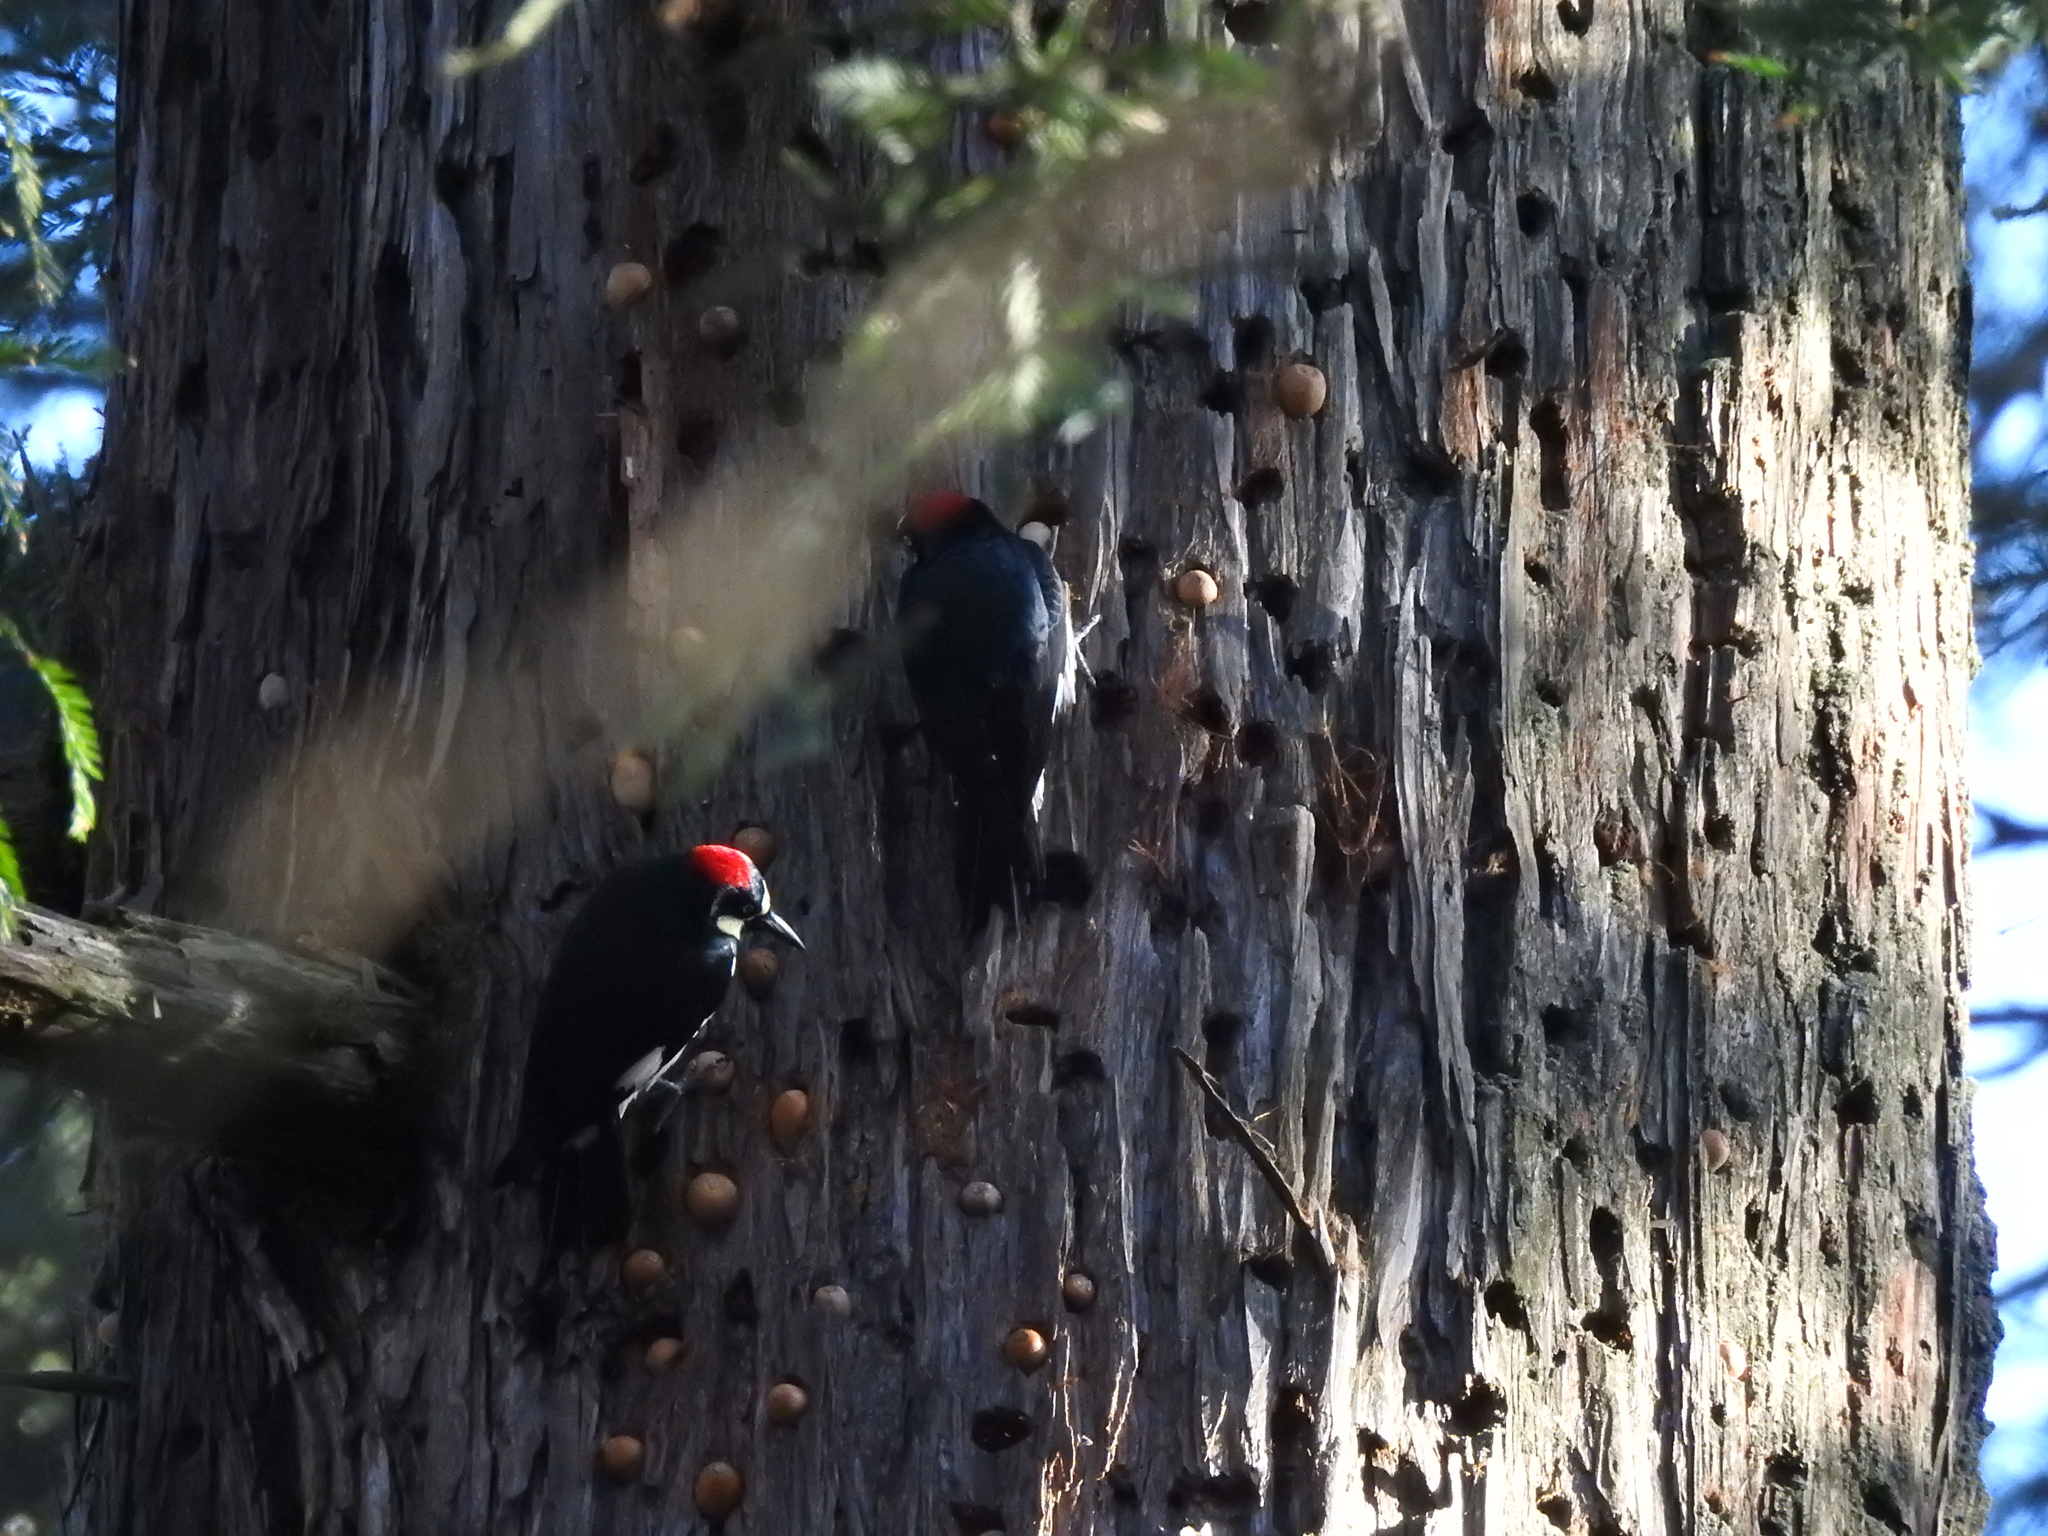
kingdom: Animalia
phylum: Chordata
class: Aves
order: Piciformes
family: Picidae
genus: Melanerpes
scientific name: Melanerpes formicivorus
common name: Acorn woodpecker
